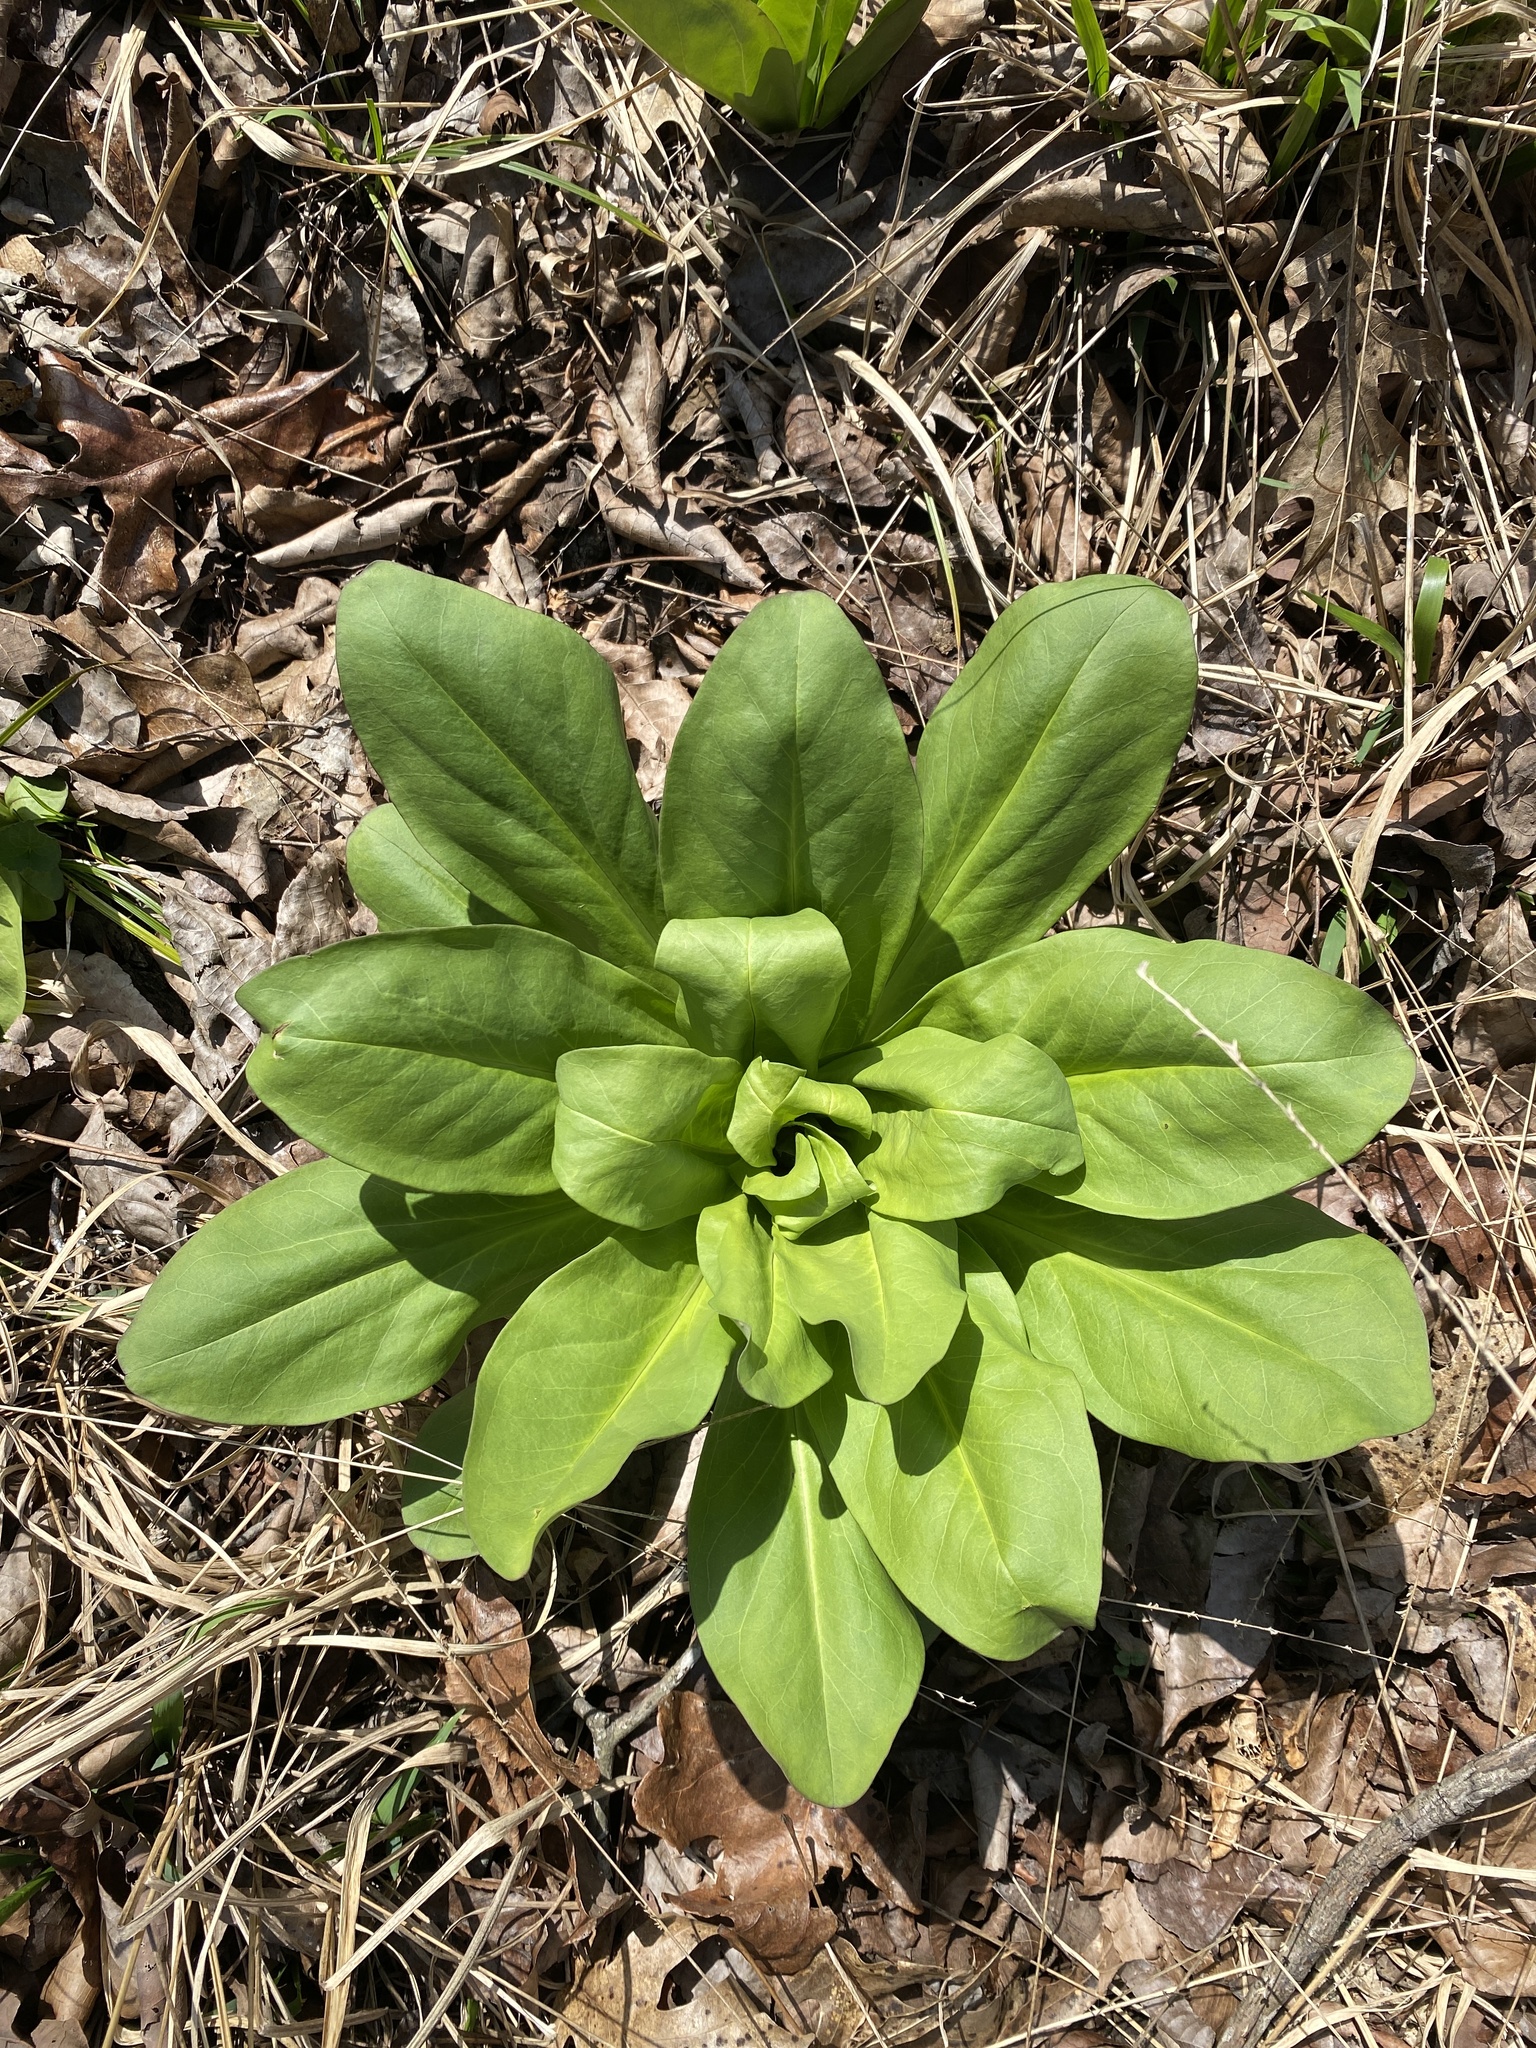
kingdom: Plantae
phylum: Tracheophyta
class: Magnoliopsida
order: Gentianales
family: Gentianaceae
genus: Frasera
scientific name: Frasera caroliniensis
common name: American columbo
